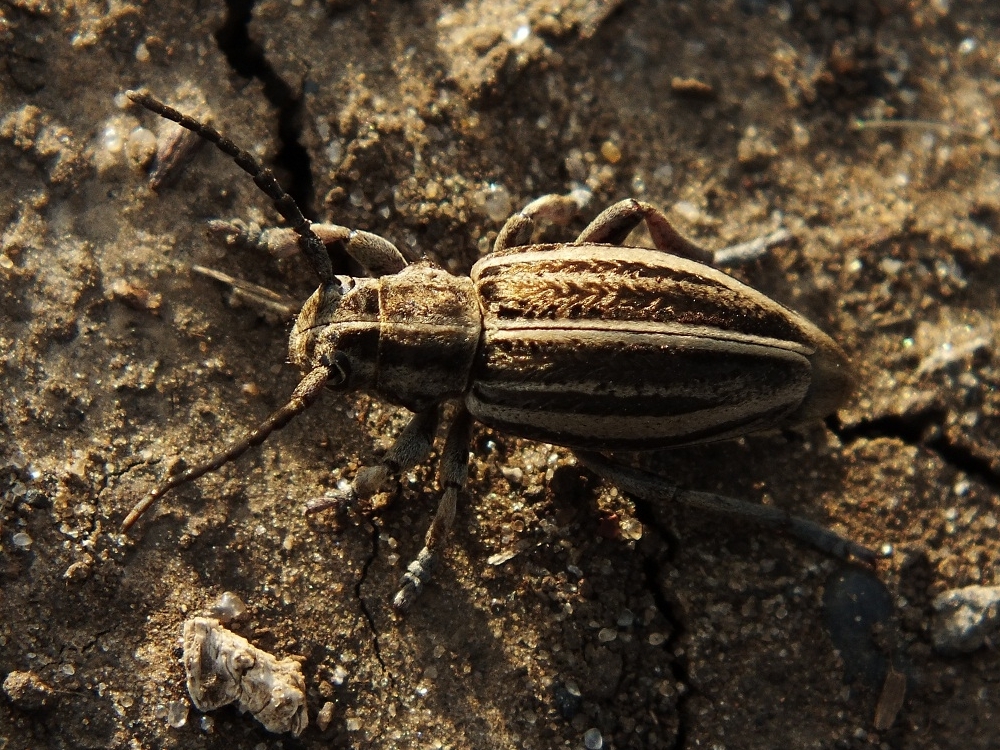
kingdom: Animalia
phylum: Arthropoda
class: Insecta
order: Coleoptera
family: Cerambycidae
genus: Dorcadion
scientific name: Dorcadion sareptanum
